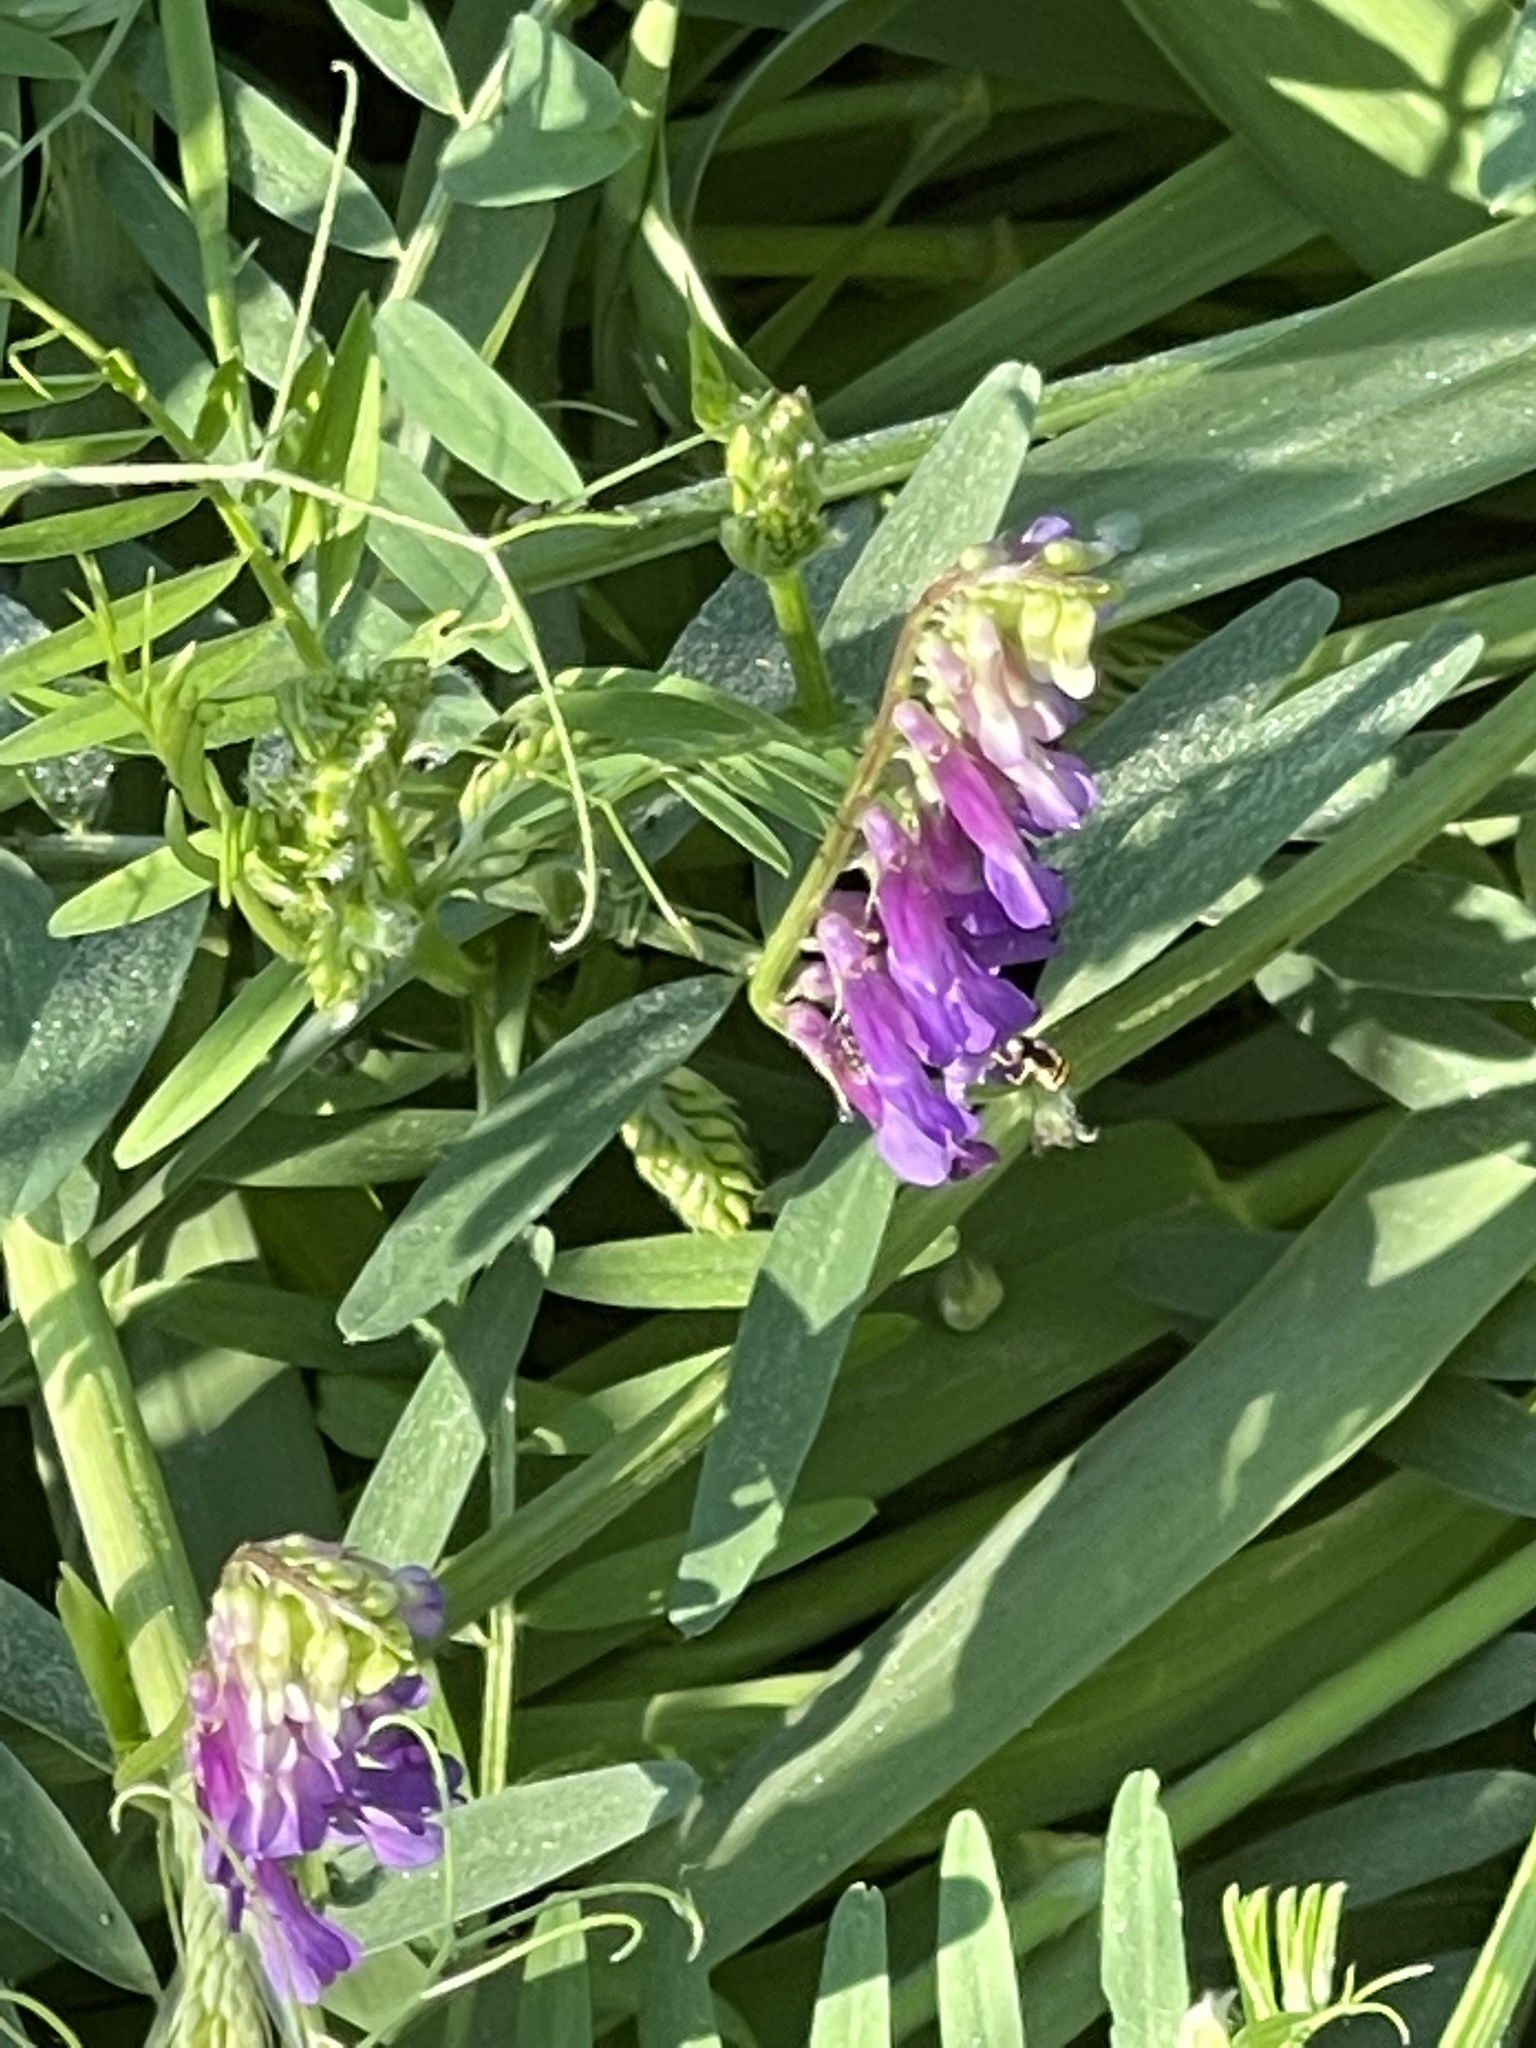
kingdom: Plantae
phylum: Tracheophyta
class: Magnoliopsida
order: Fabales
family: Fabaceae
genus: Vicia
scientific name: Vicia villosa
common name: Fodder vetch
